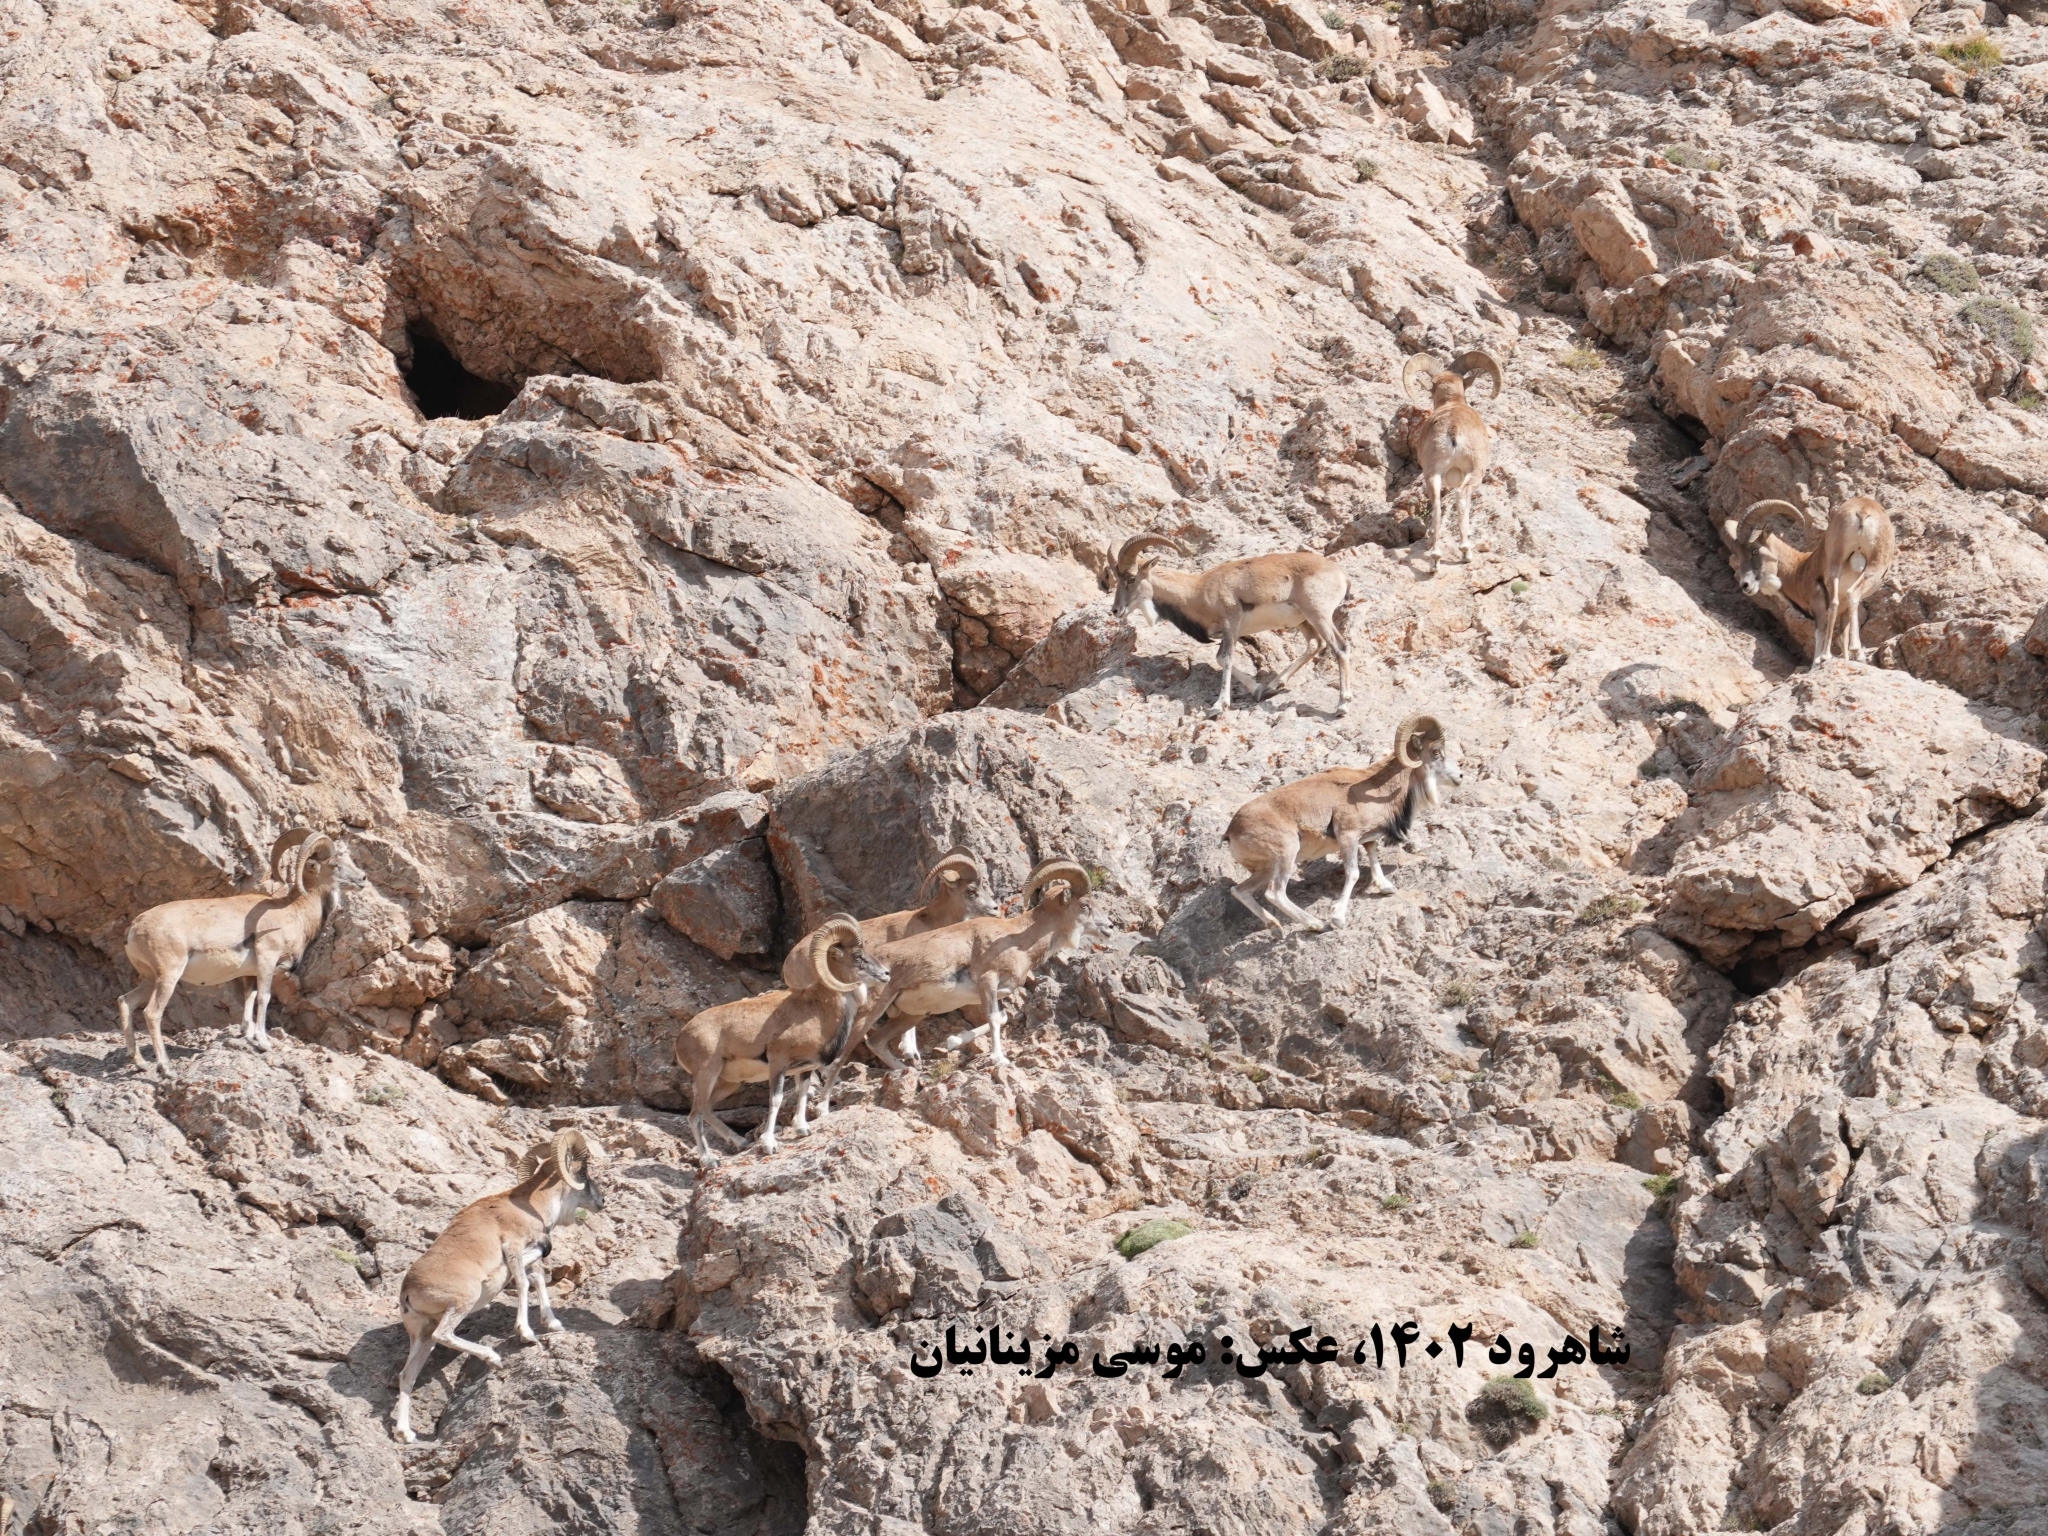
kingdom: Animalia
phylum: Chordata
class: Mammalia
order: Artiodactyla
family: Bovidae
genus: Ovis
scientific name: Ovis aries
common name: Domestic sheep
